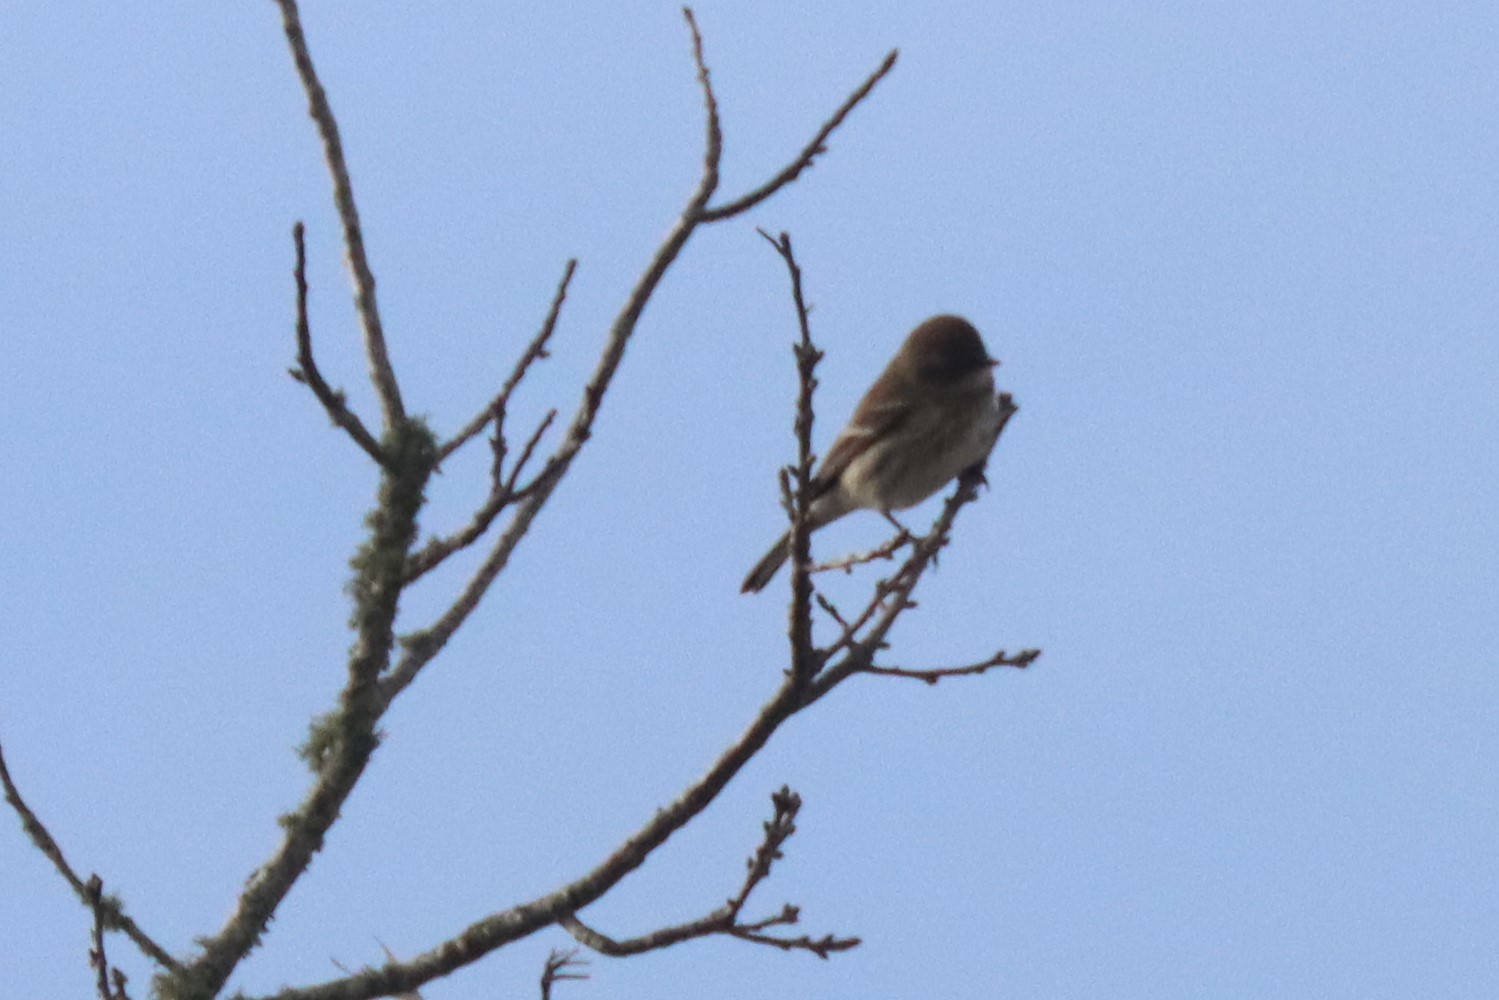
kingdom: Animalia
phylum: Chordata
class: Aves
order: Passeriformes
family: Parulidae
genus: Setophaga
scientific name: Setophaga coronata
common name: Myrtle warbler
